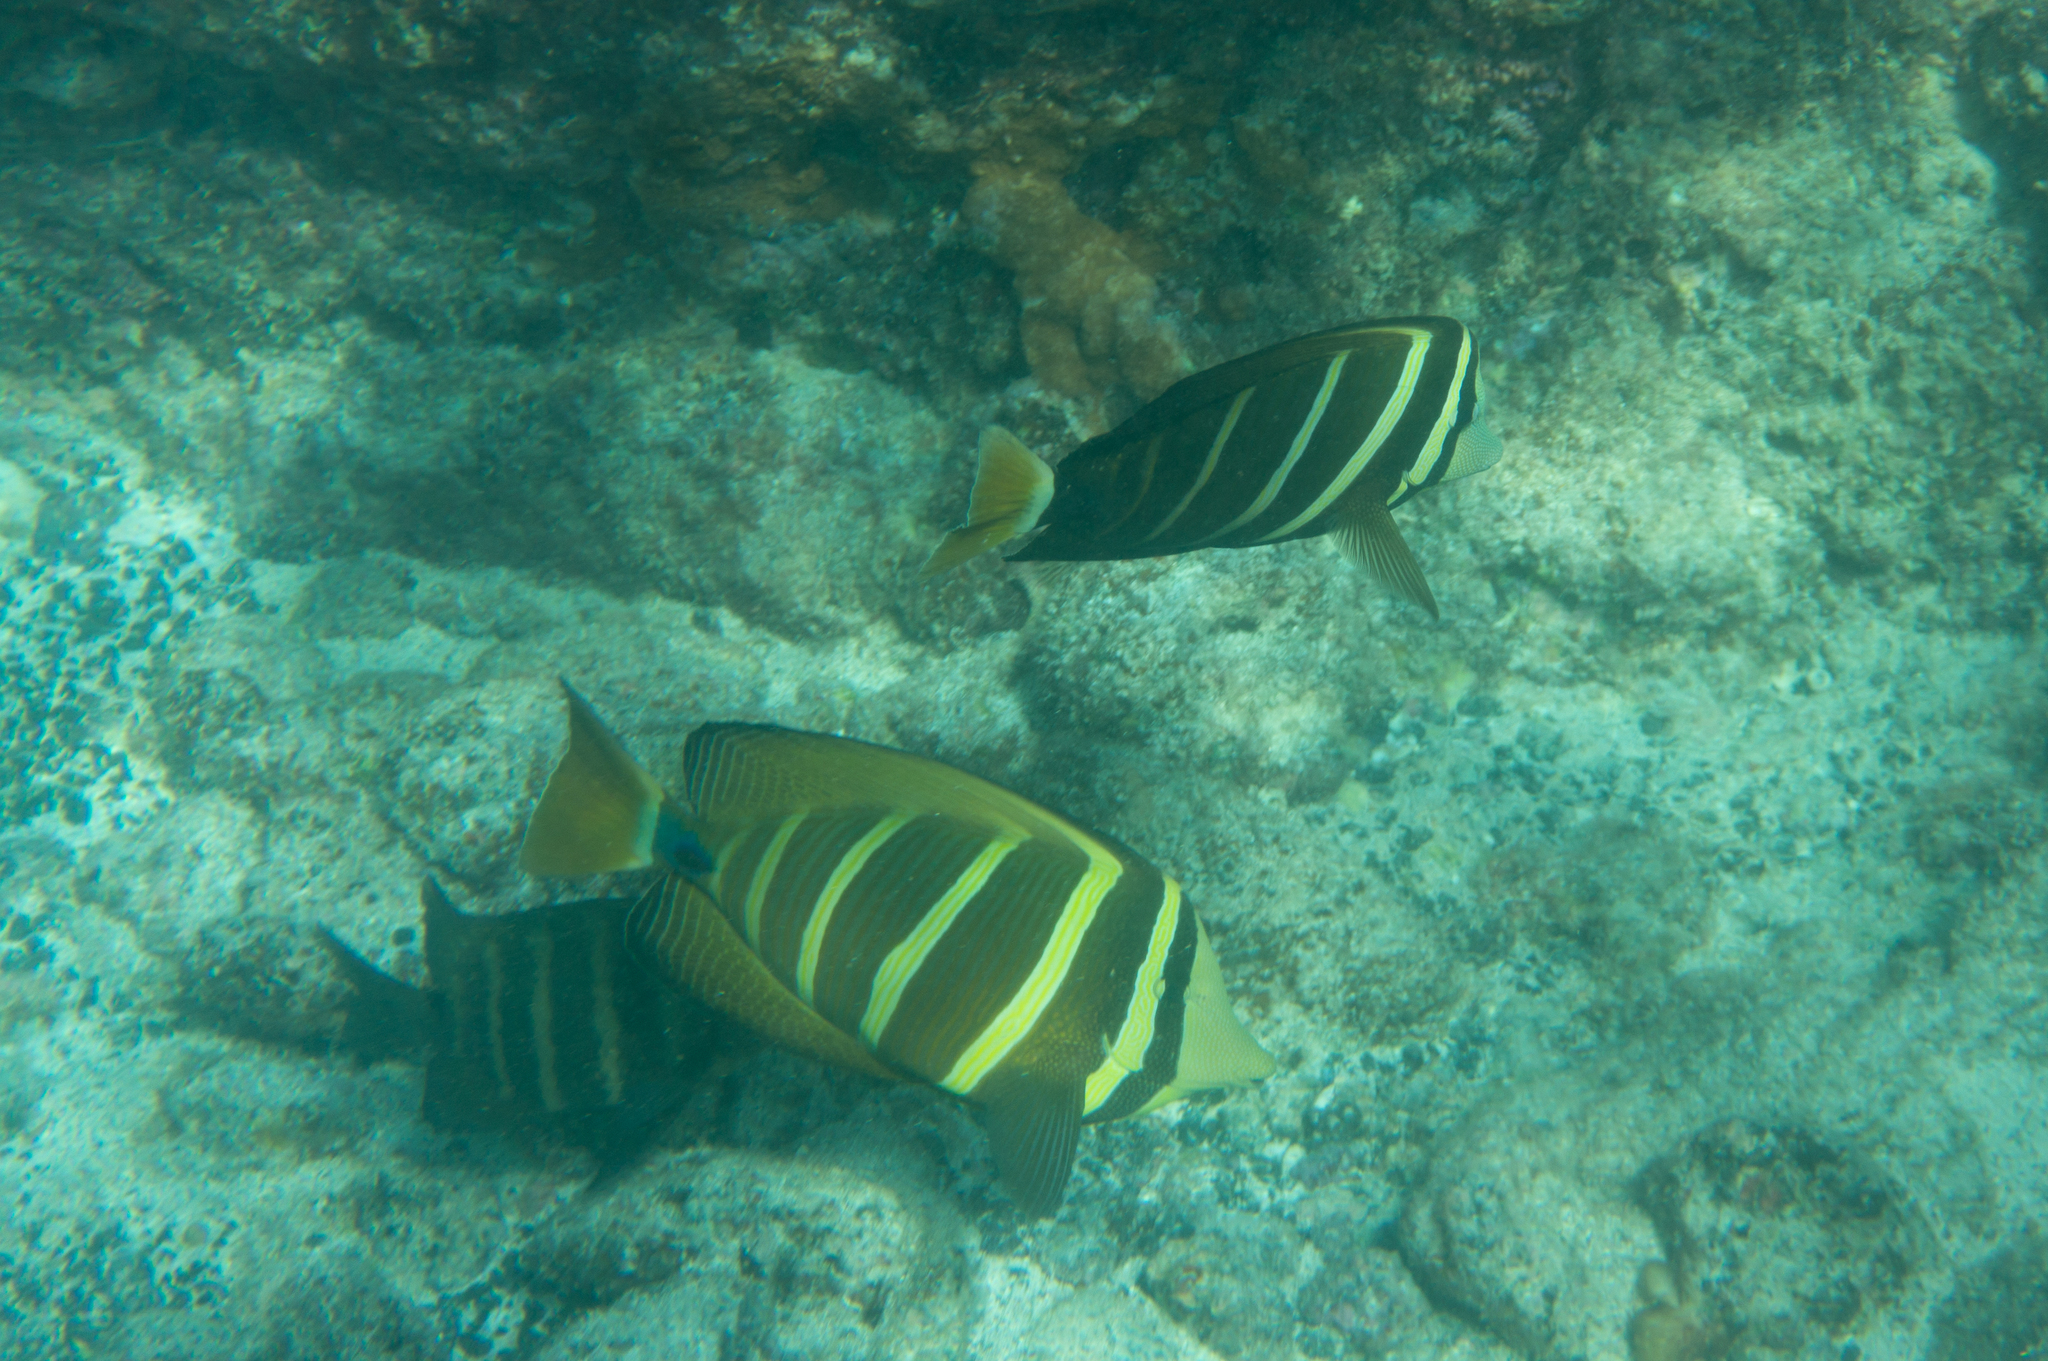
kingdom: Animalia
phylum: Chordata
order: Perciformes
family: Acanthuridae
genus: Zebrasoma
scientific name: Zebrasoma veliferum
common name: Sailfin surgeonfish
